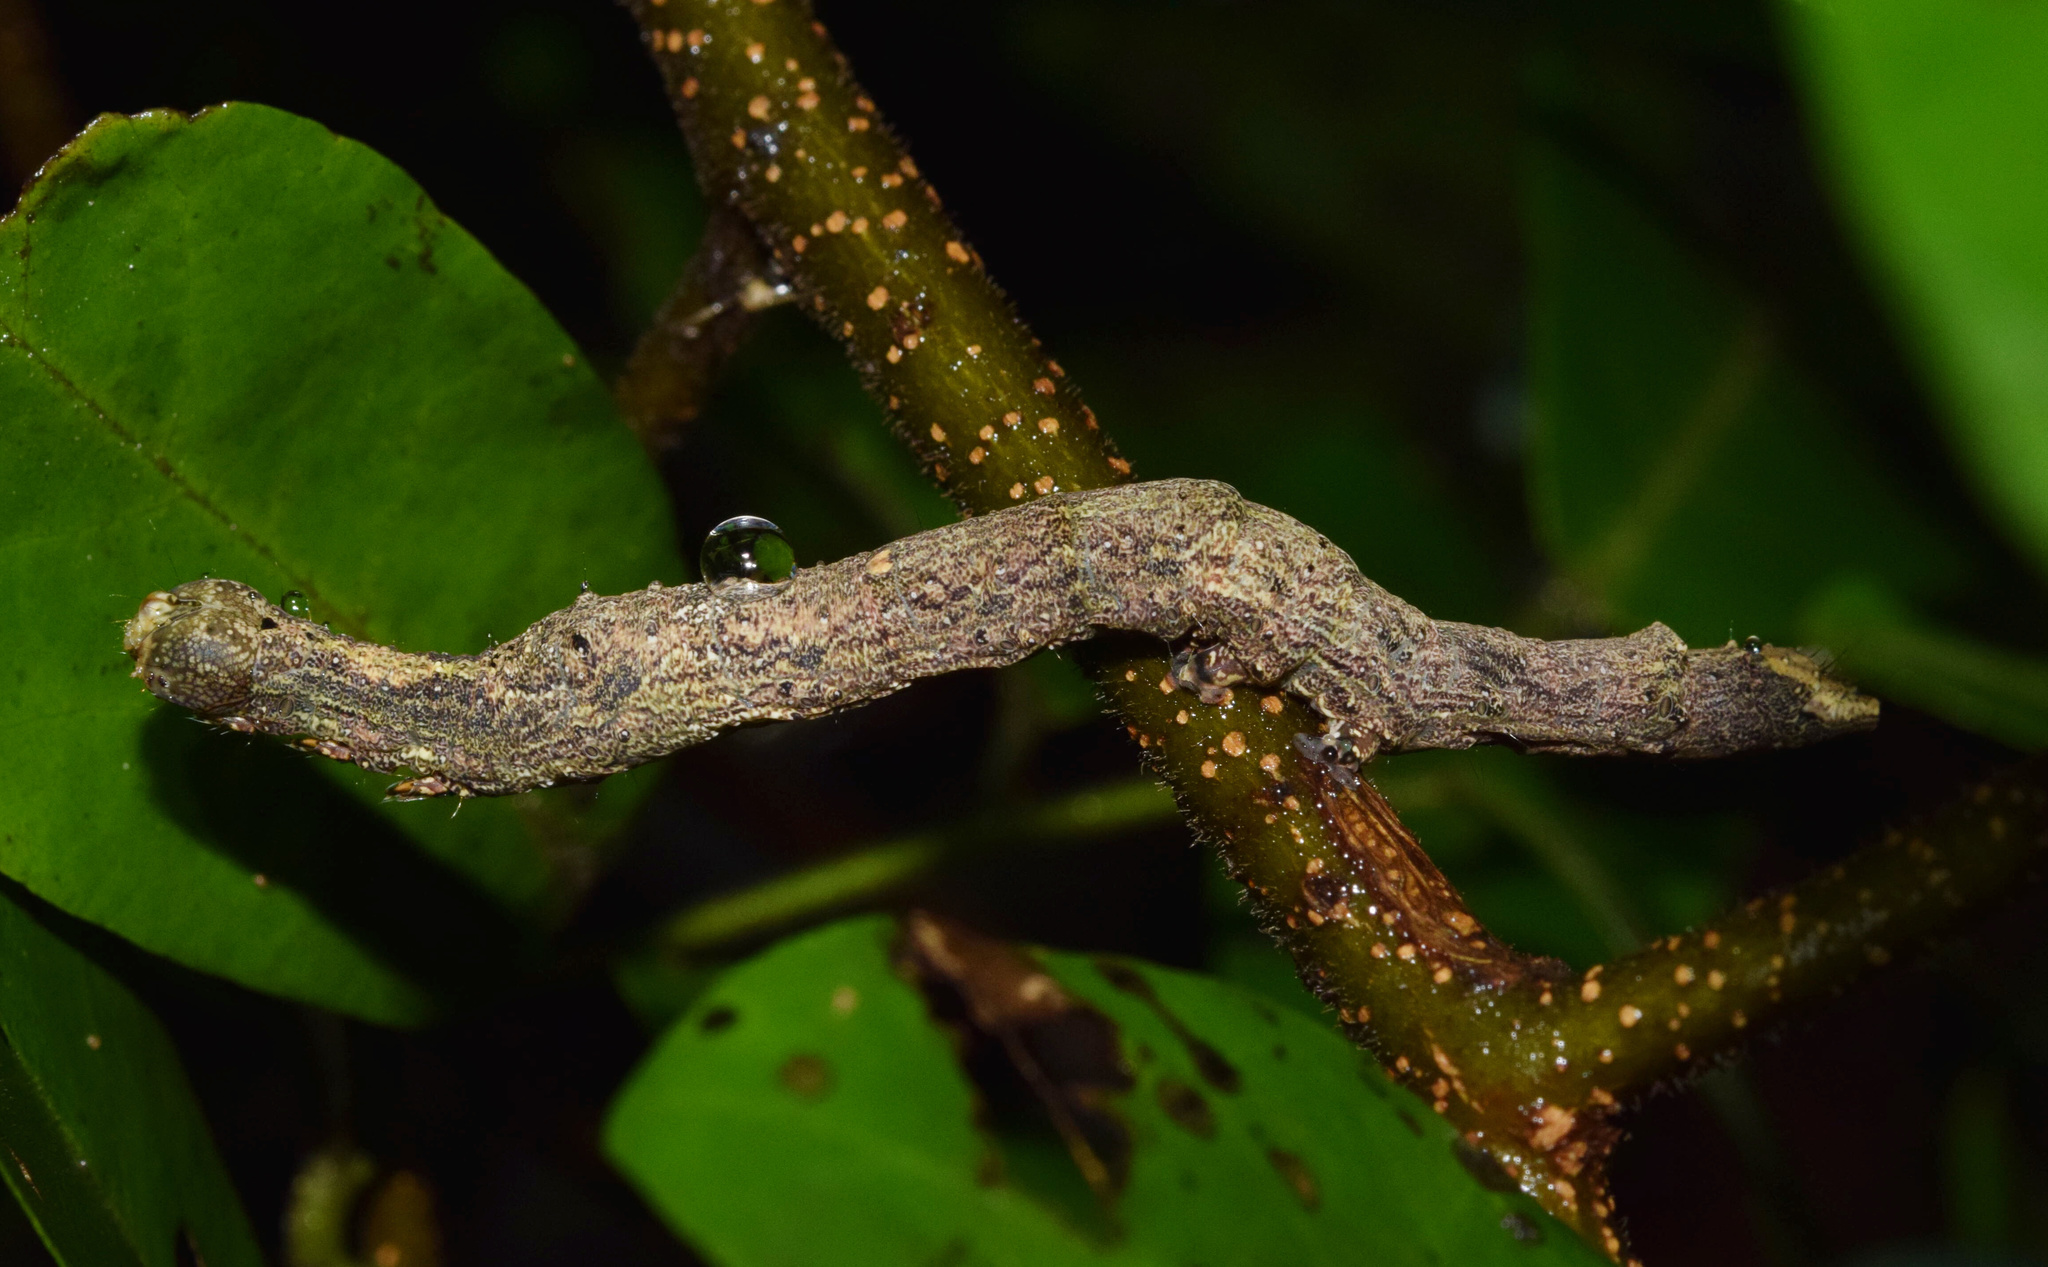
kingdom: Plantae
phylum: Tracheophyta
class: Magnoliopsida
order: Magnoliales
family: Annonaceae
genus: Monanthotaxis
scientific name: Monanthotaxis caffra
